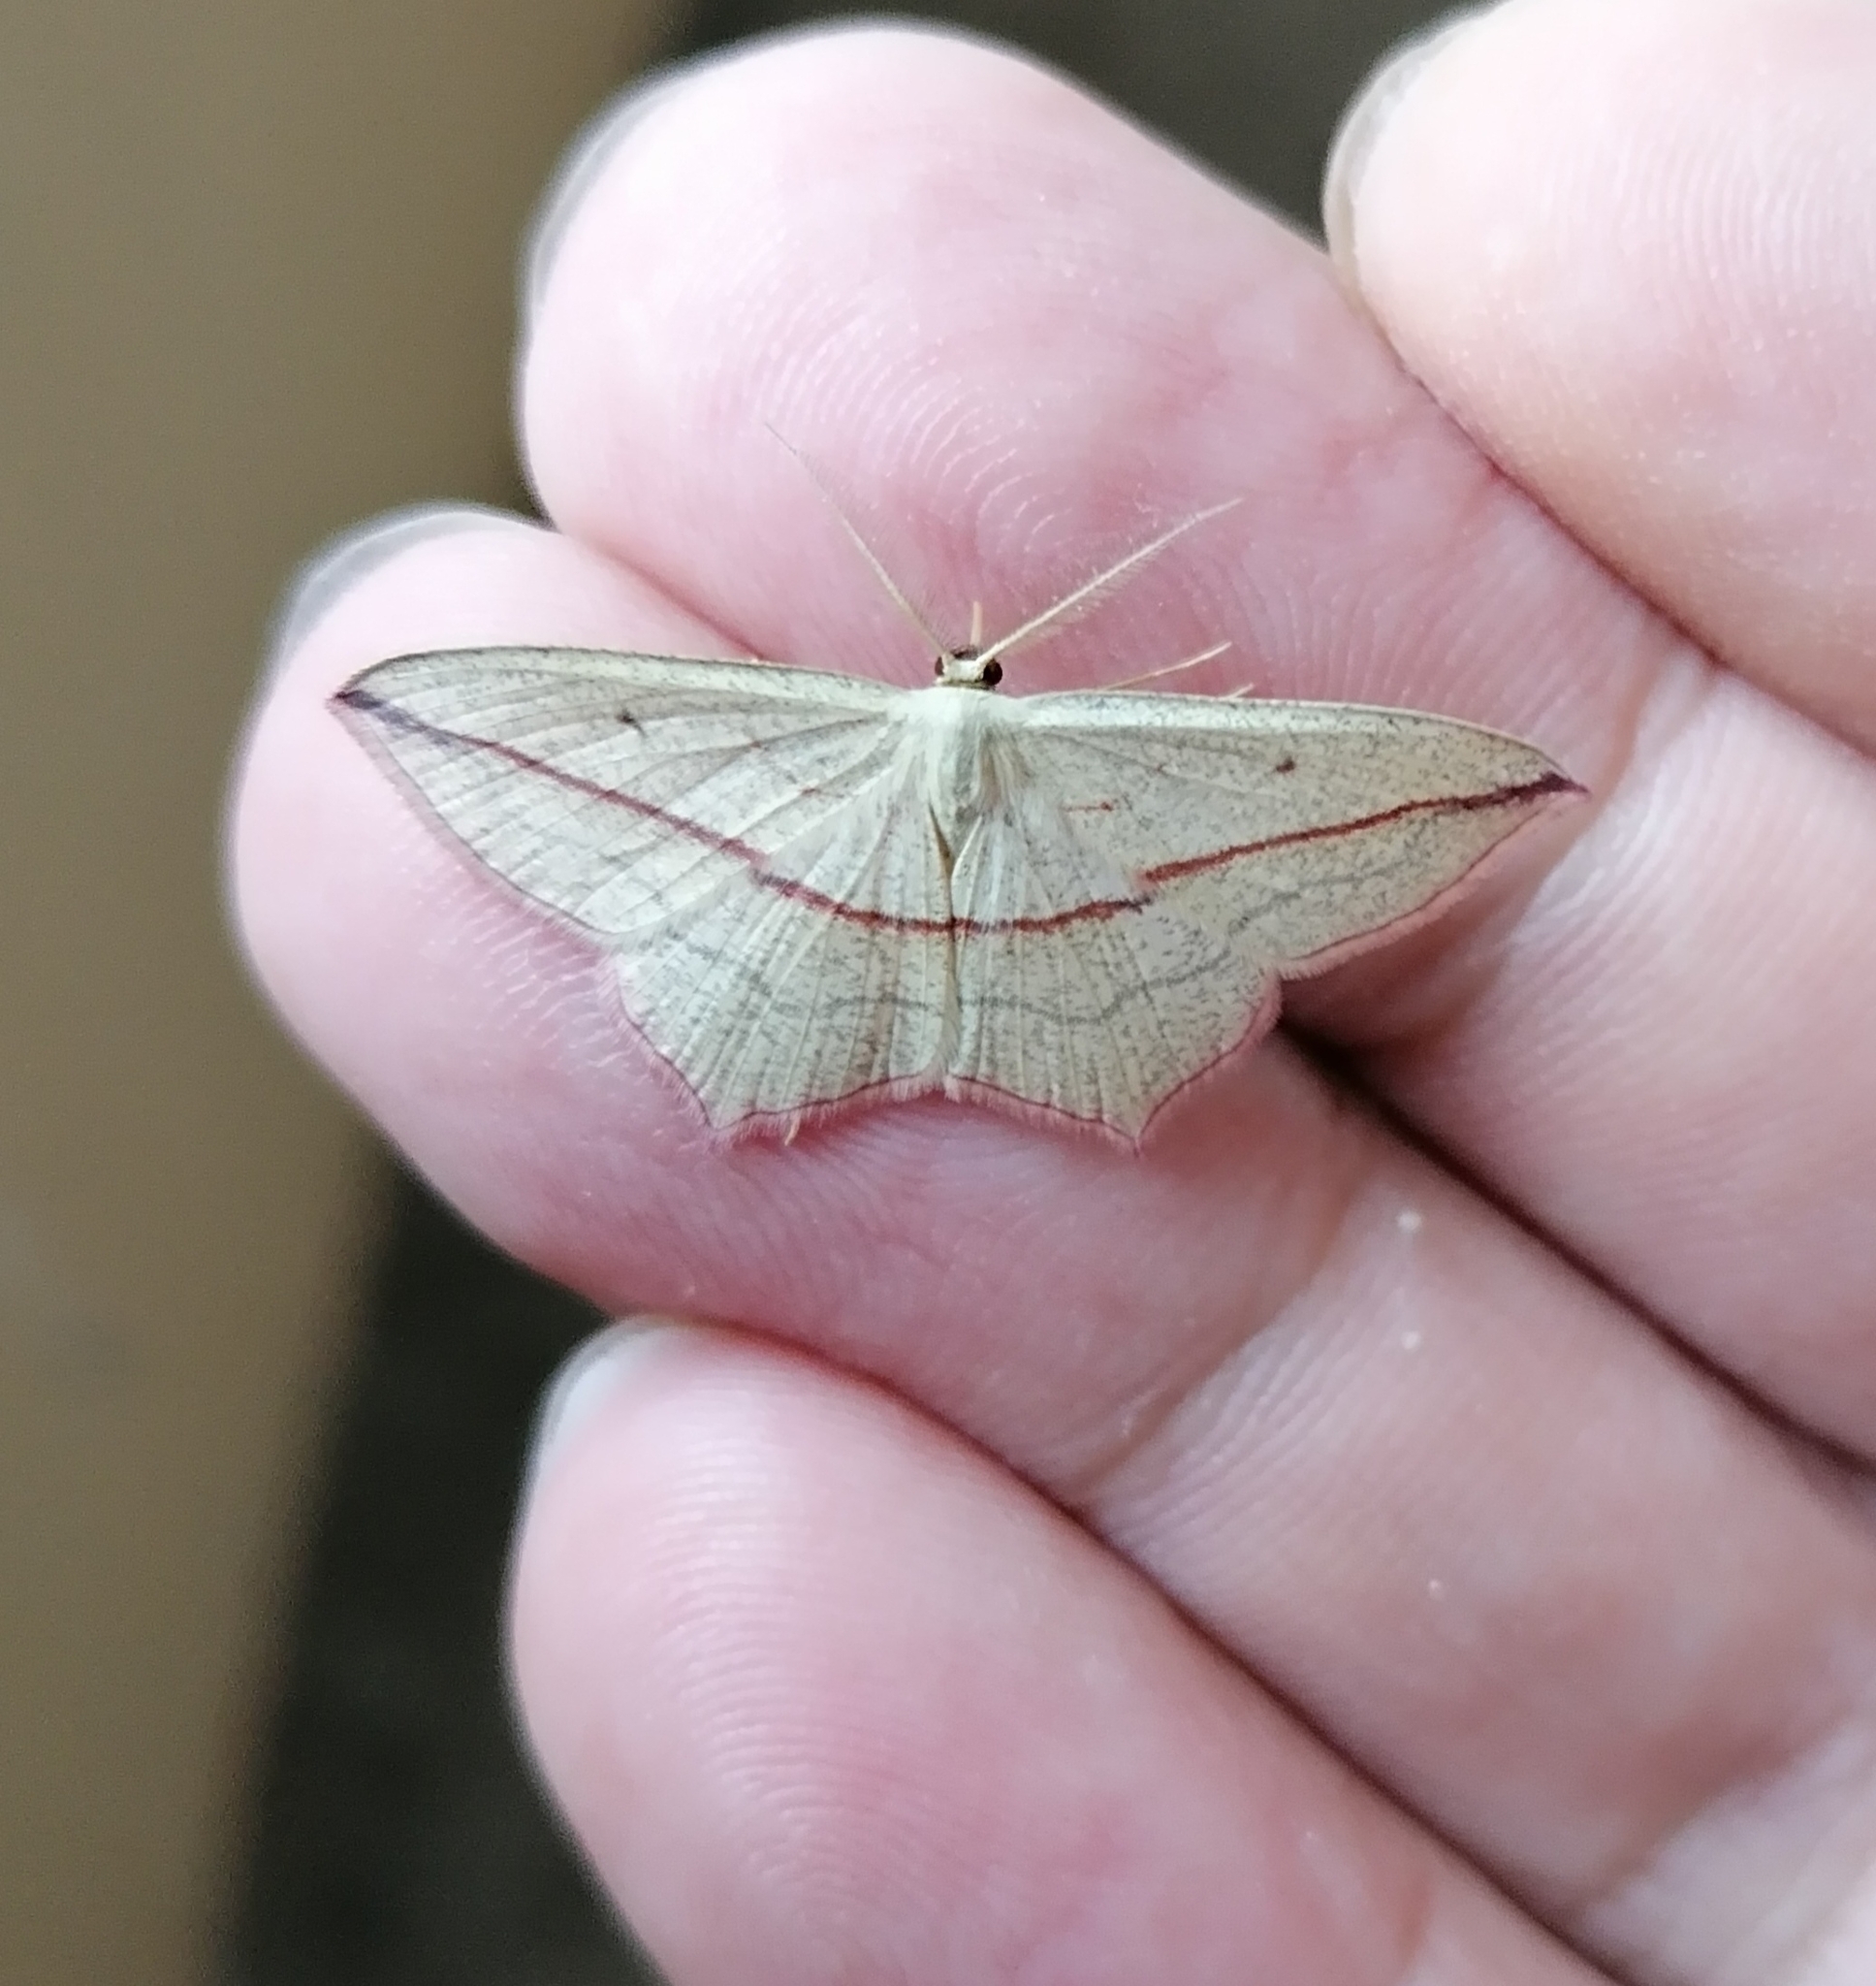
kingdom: Animalia
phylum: Arthropoda
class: Insecta
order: Lepidoptera
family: Geometridae
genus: Timandra
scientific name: Timandra comae
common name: Blood-vein
